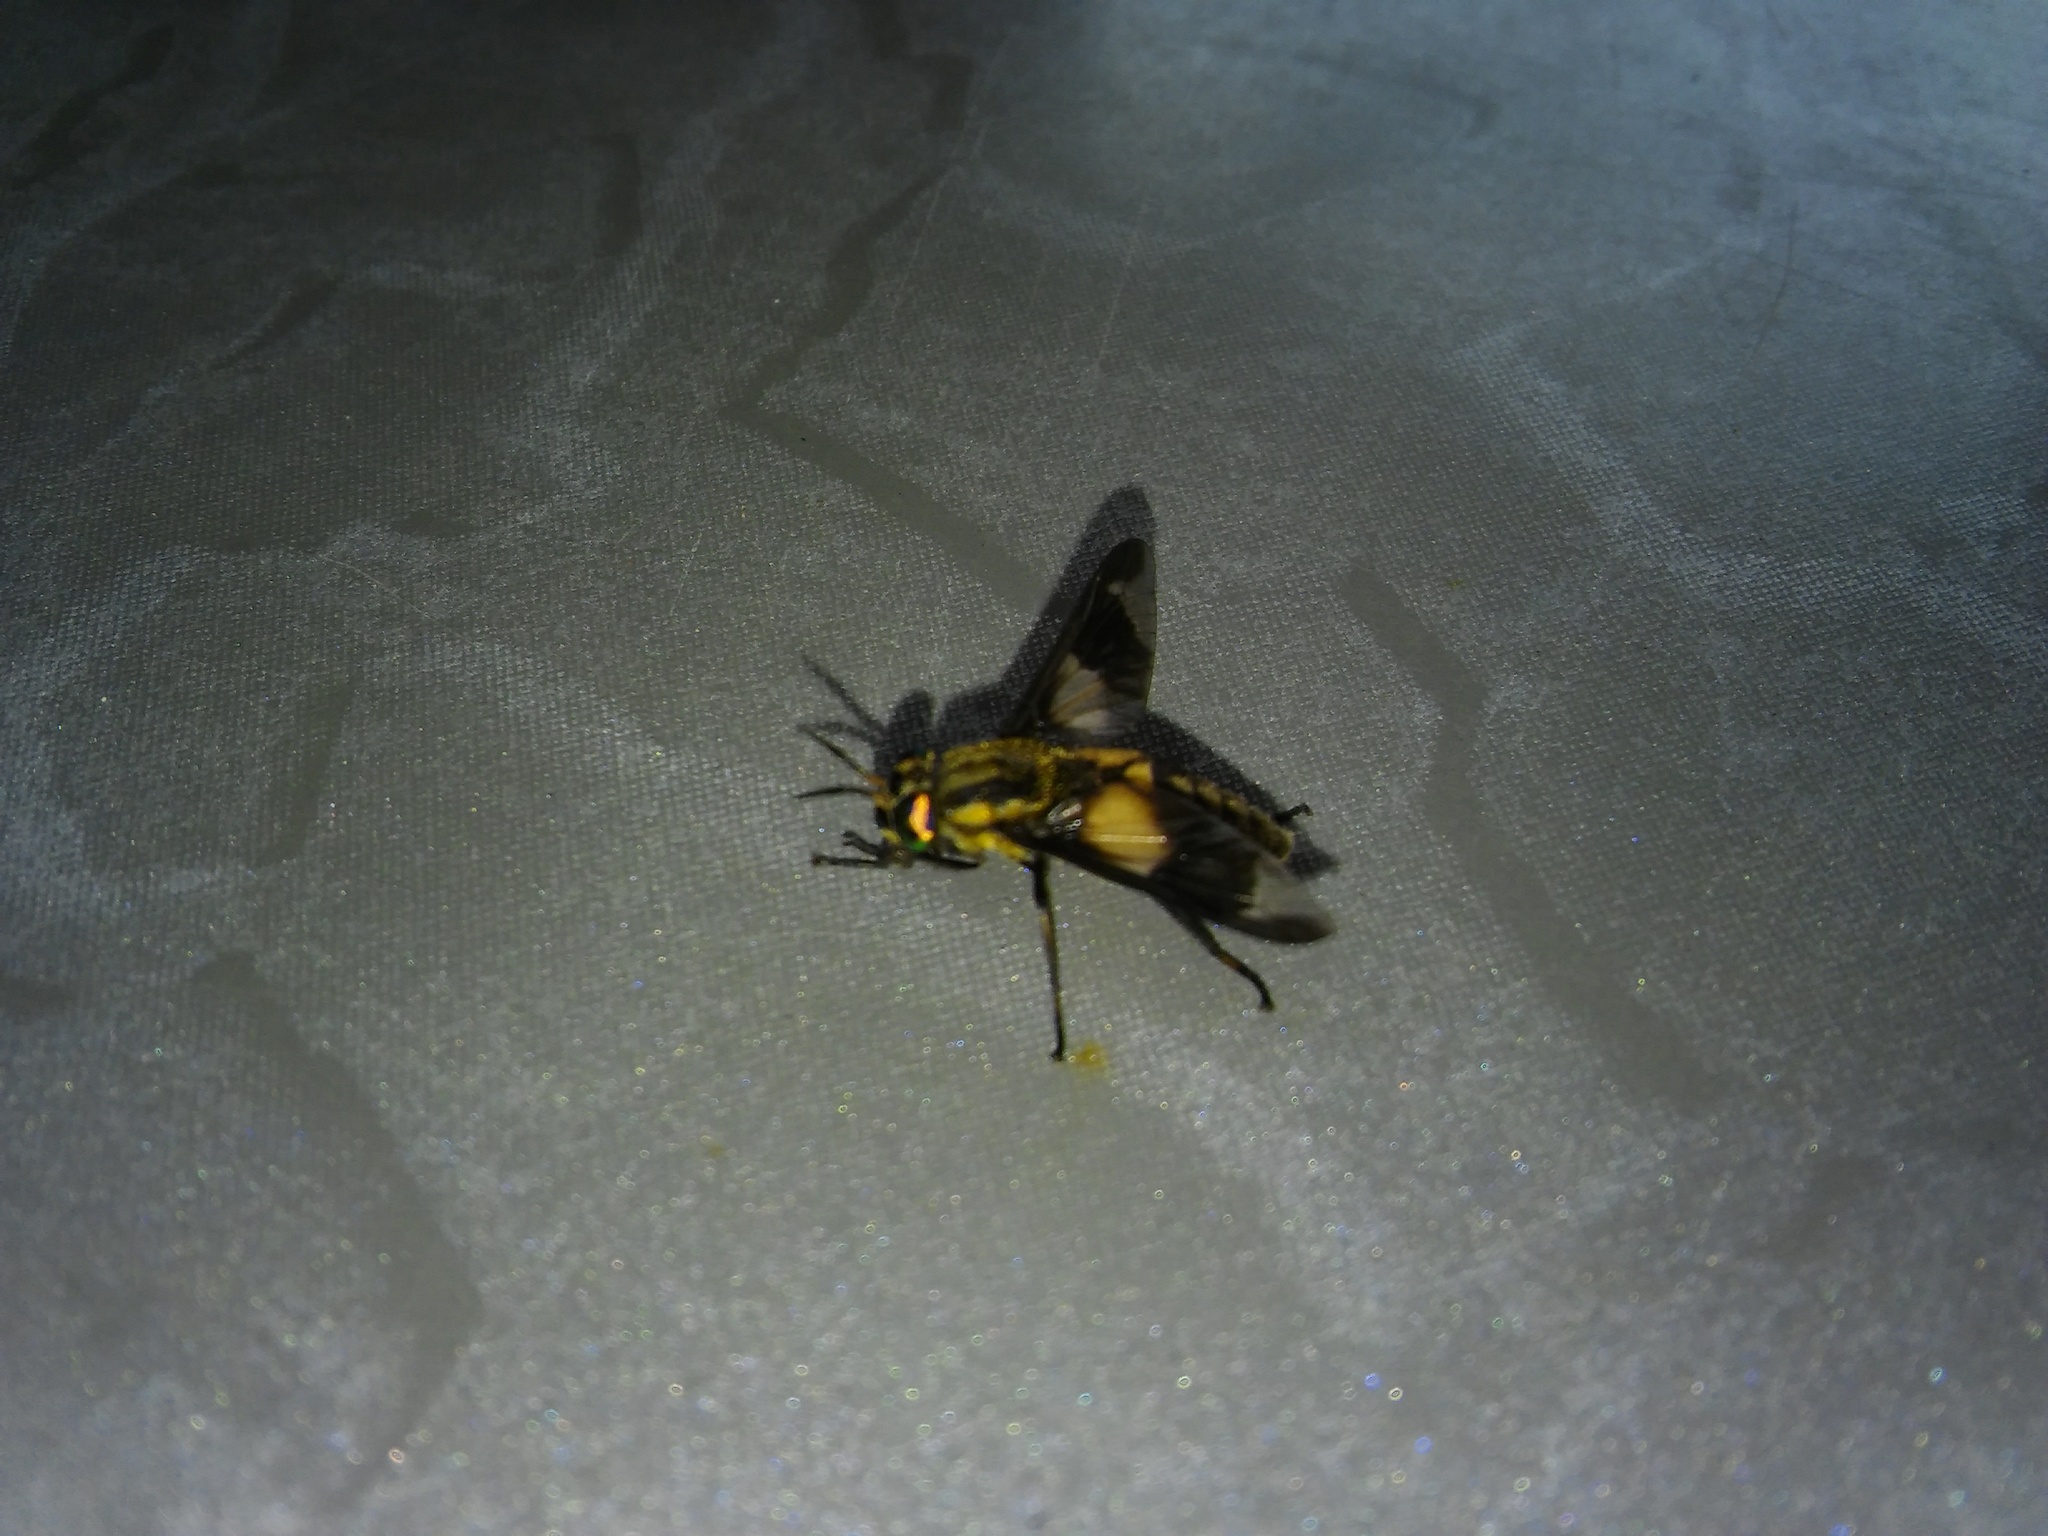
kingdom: Animalia
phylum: Arthropoda
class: Insecta
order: Diptera
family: Tabanidae
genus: Chrysops
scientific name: Chrysops caecutiens
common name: Splayed deerfly
